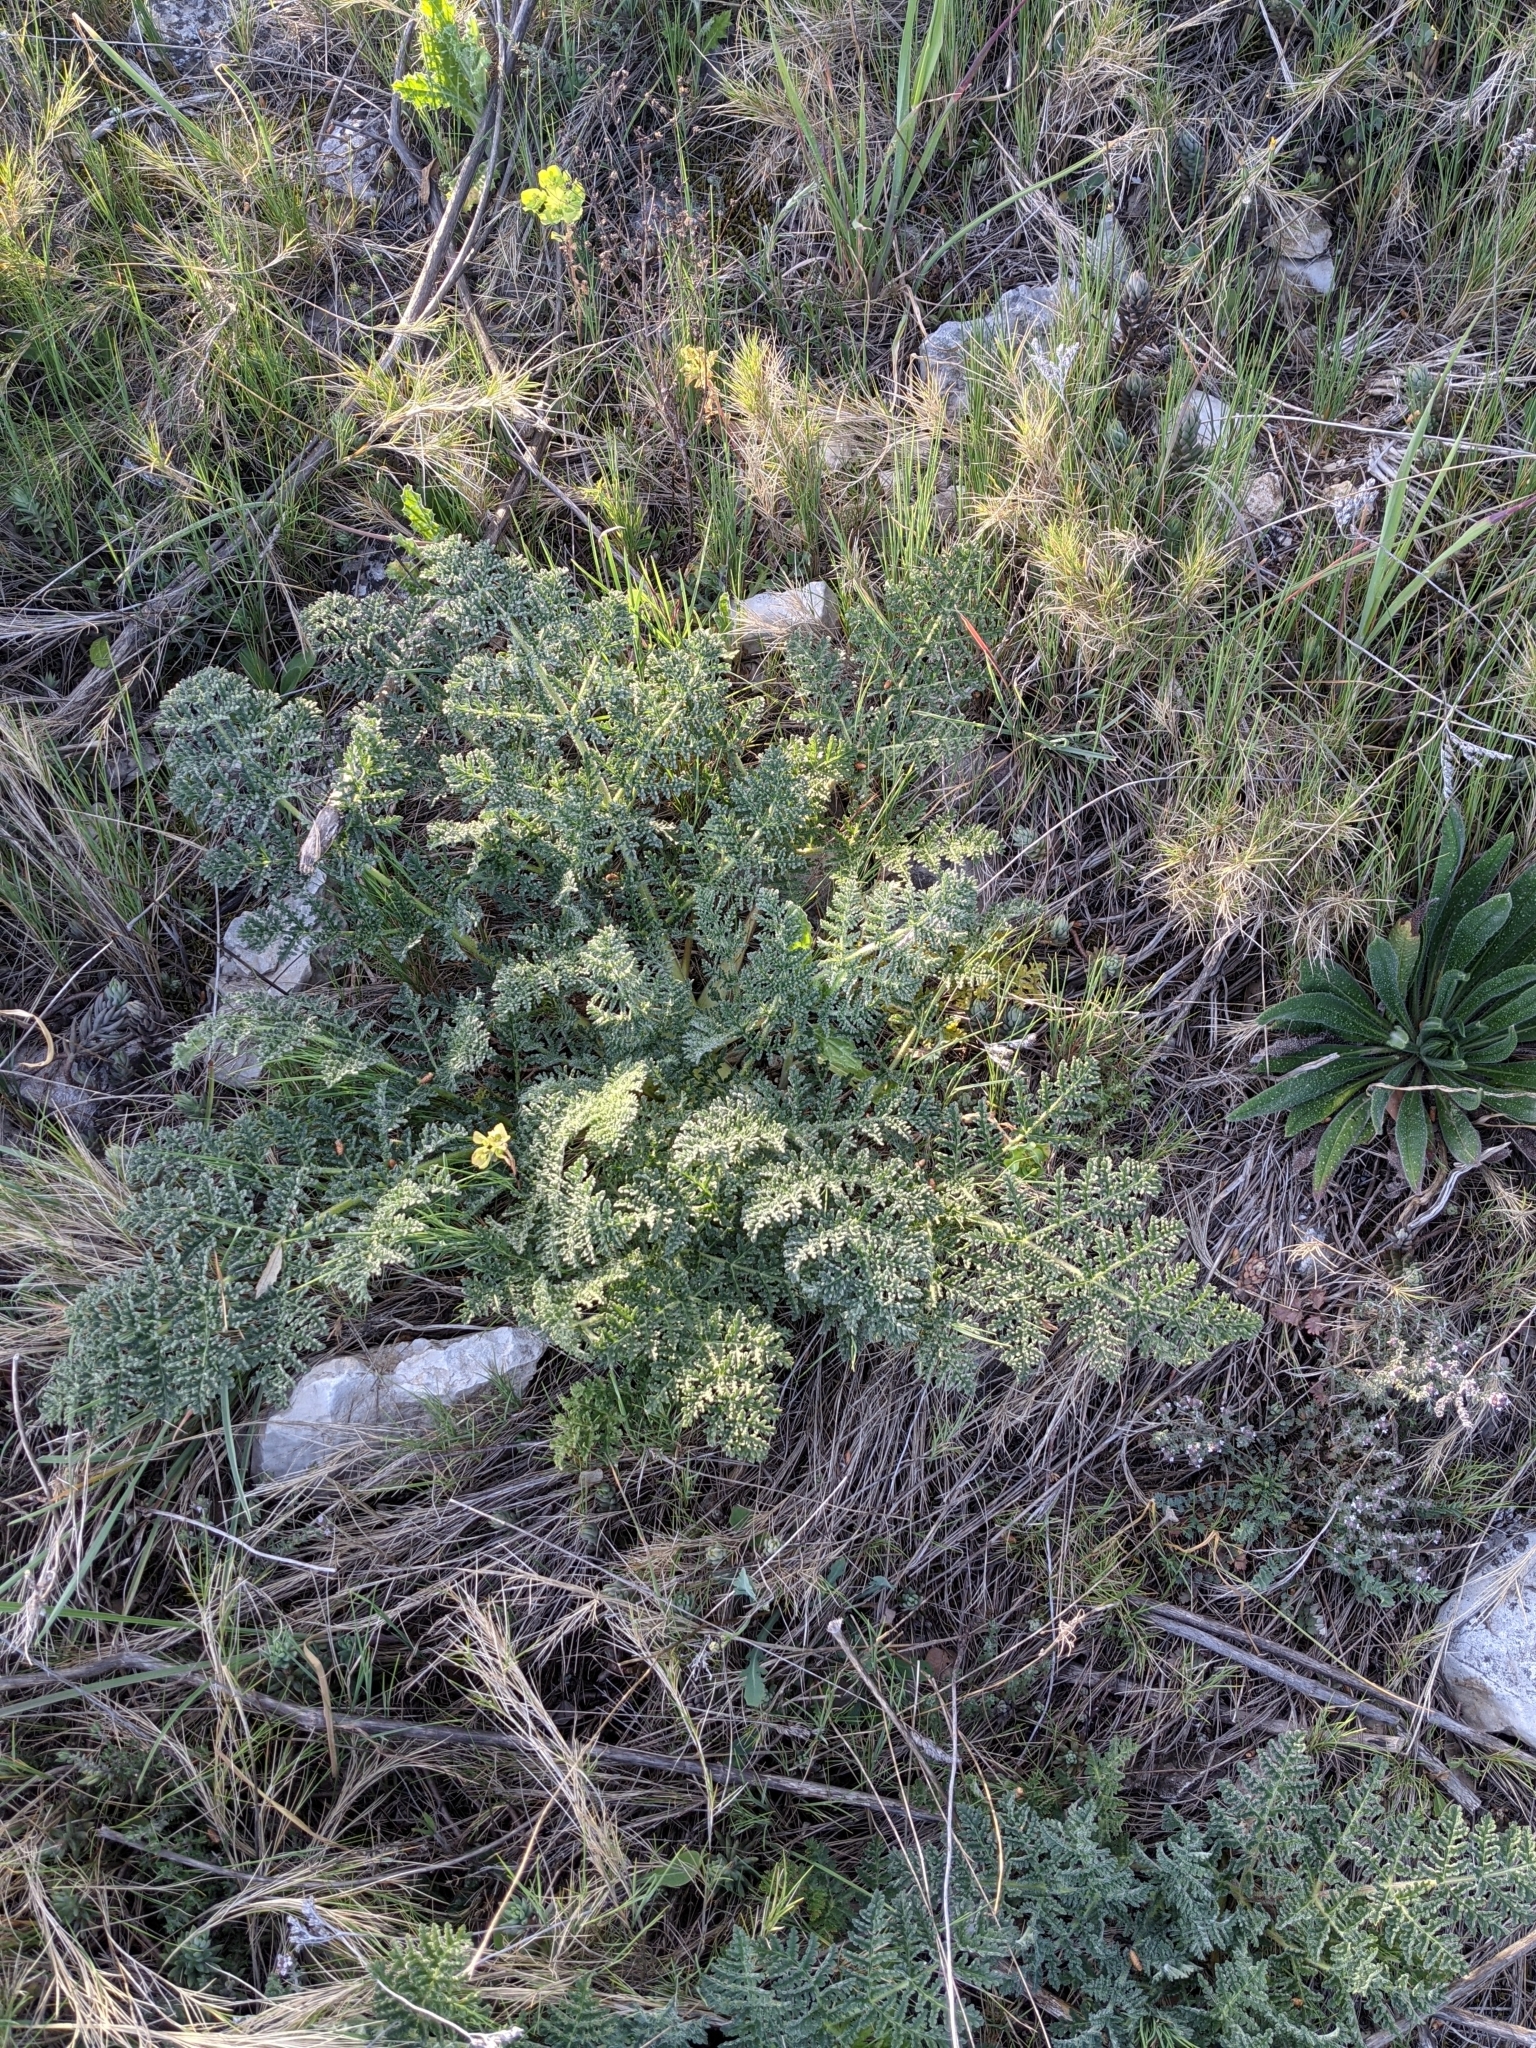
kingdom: Plantae
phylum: Tracheophyta
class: Magnoliopsida
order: Apiales
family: Apiaceae
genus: Thapsia
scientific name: Thapsia villosa
